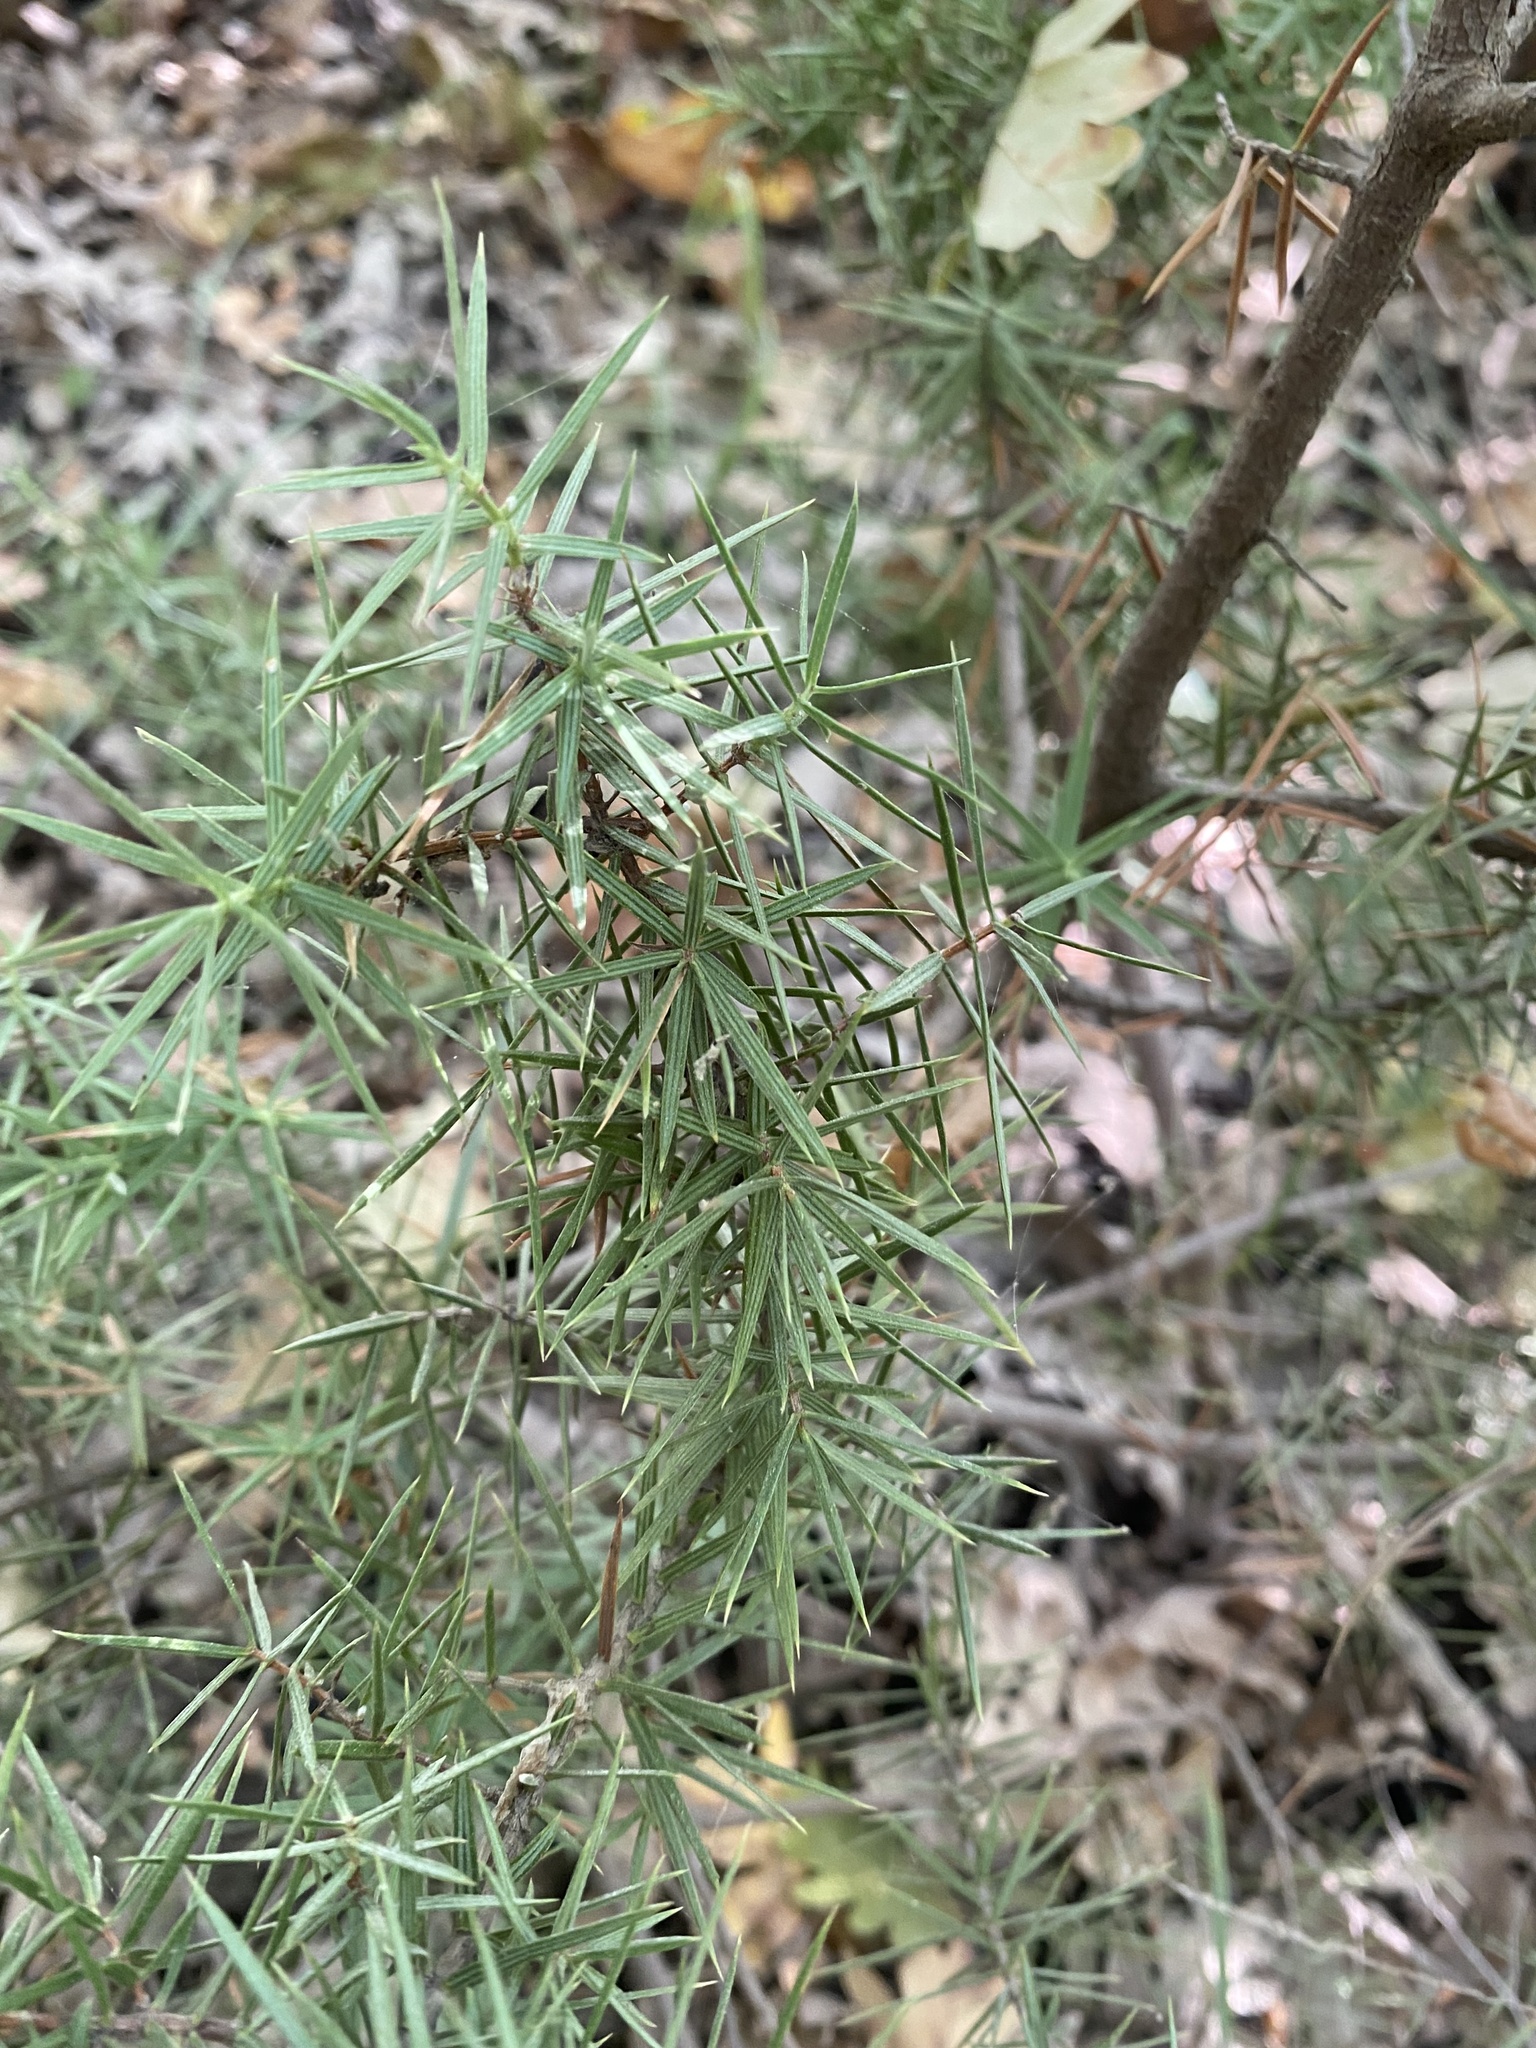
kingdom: Plantae
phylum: Tracheophyta
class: Pinopsida
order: Pinales
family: Cupressaceae
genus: Juniperus
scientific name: Juniperus oxycedrus
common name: Prickly juniper
